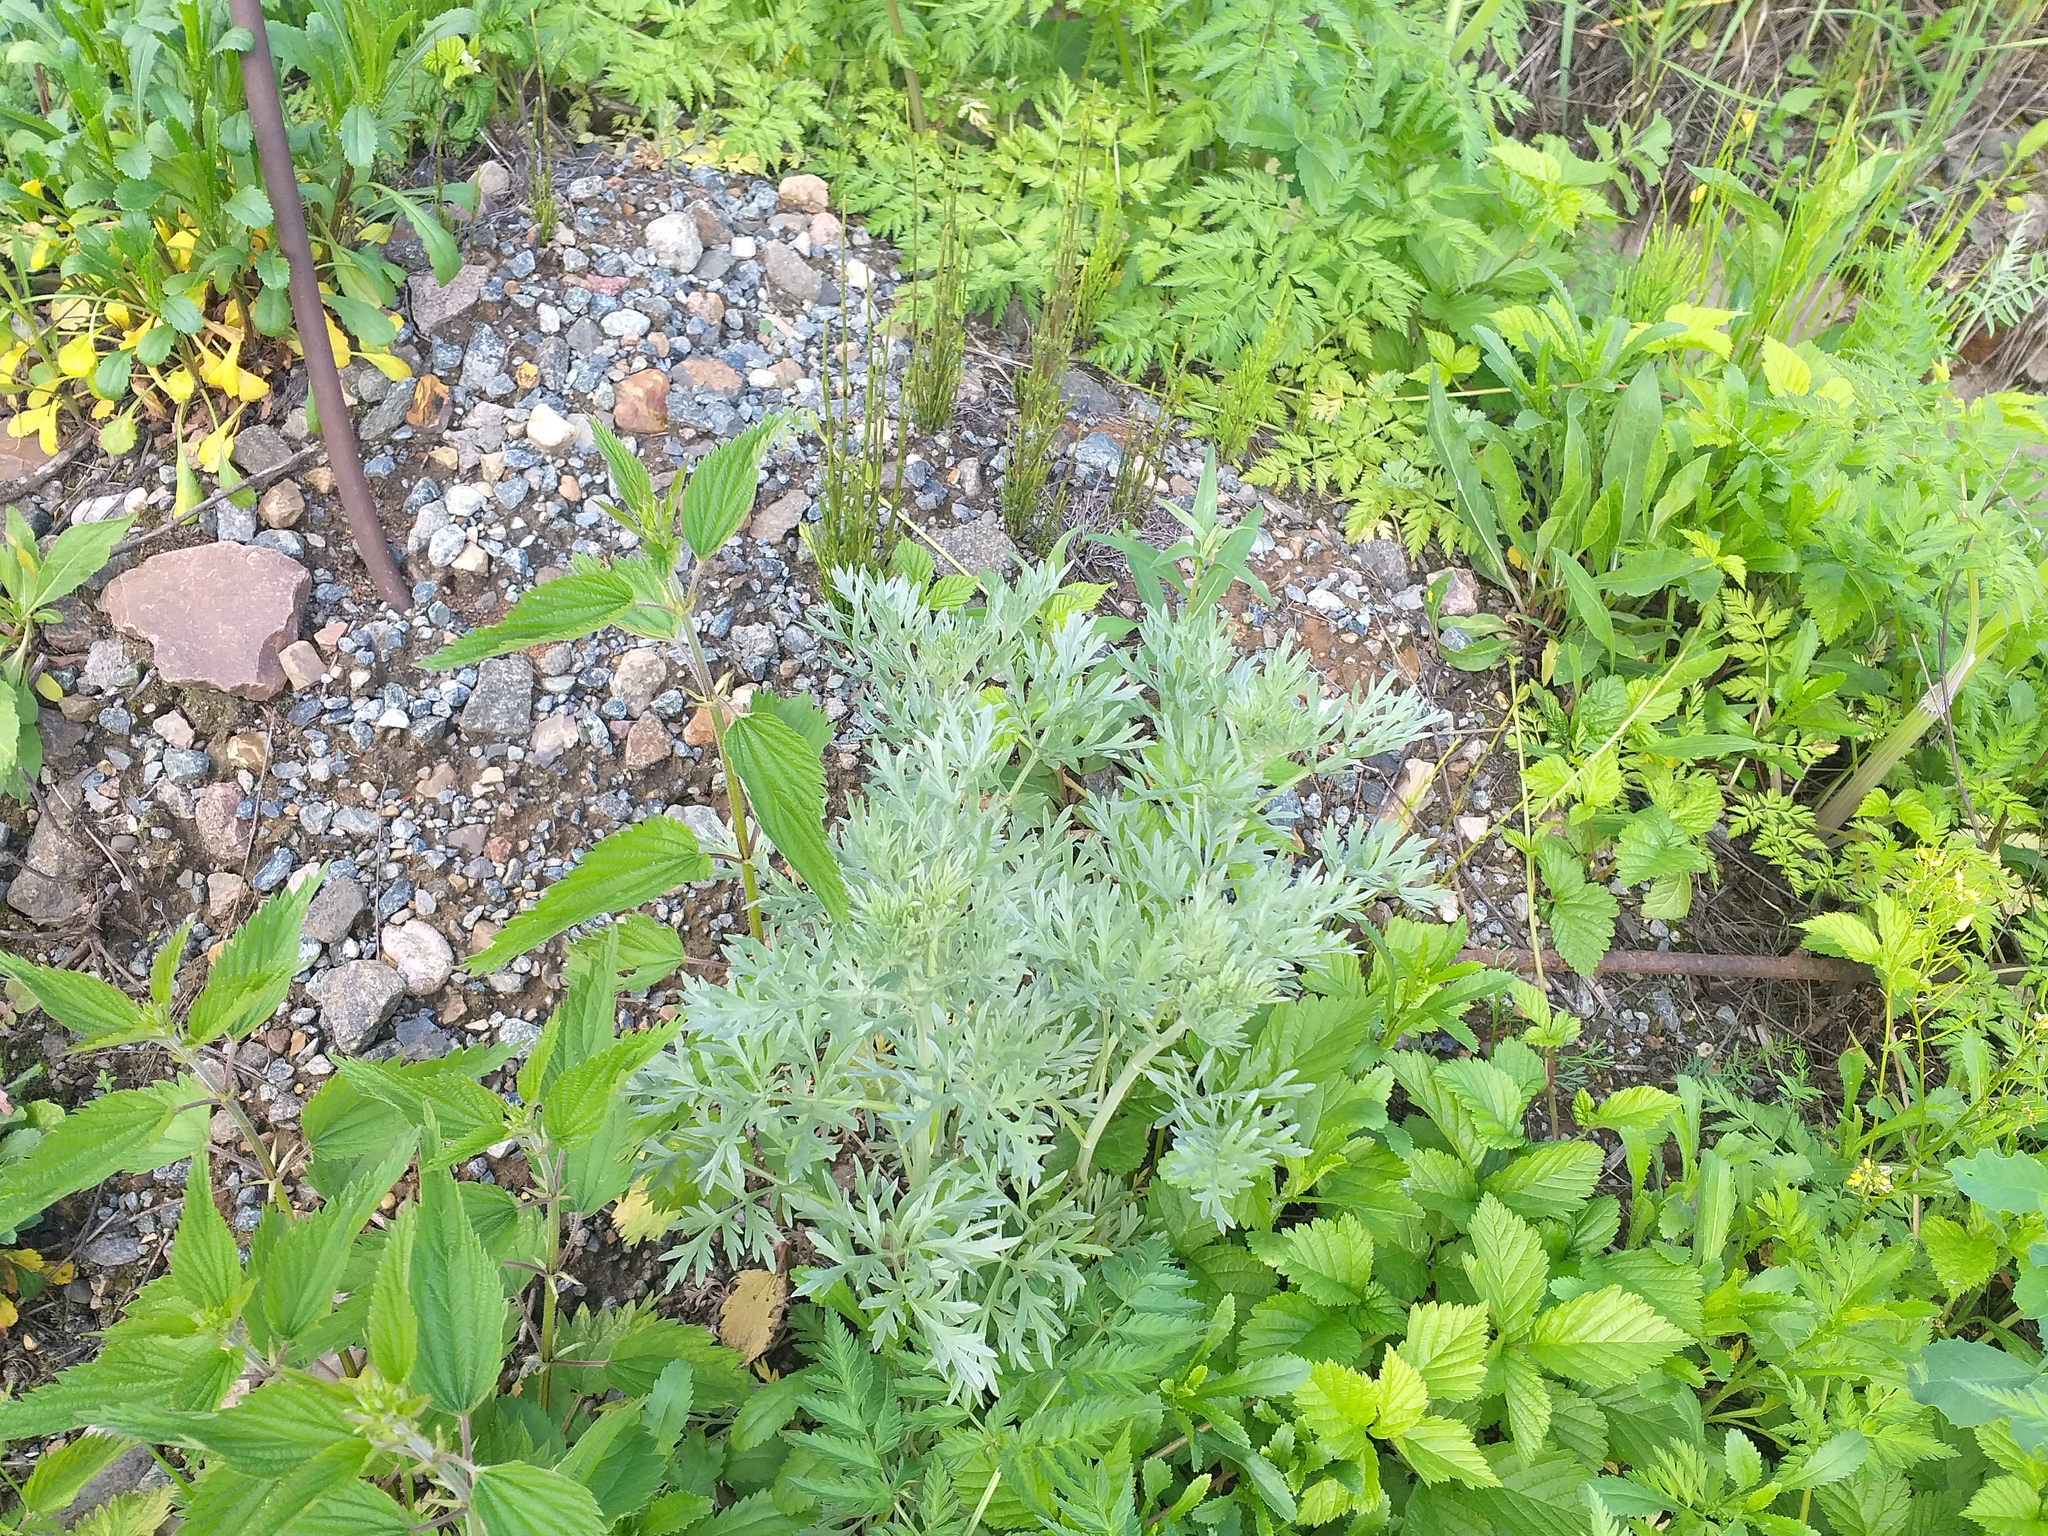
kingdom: Plantae
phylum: Tracheophyta
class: Magnoliopsida
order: Asterales
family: Asteraceae
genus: Artemisia
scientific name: Artemisia absinthium
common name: Wormwood
